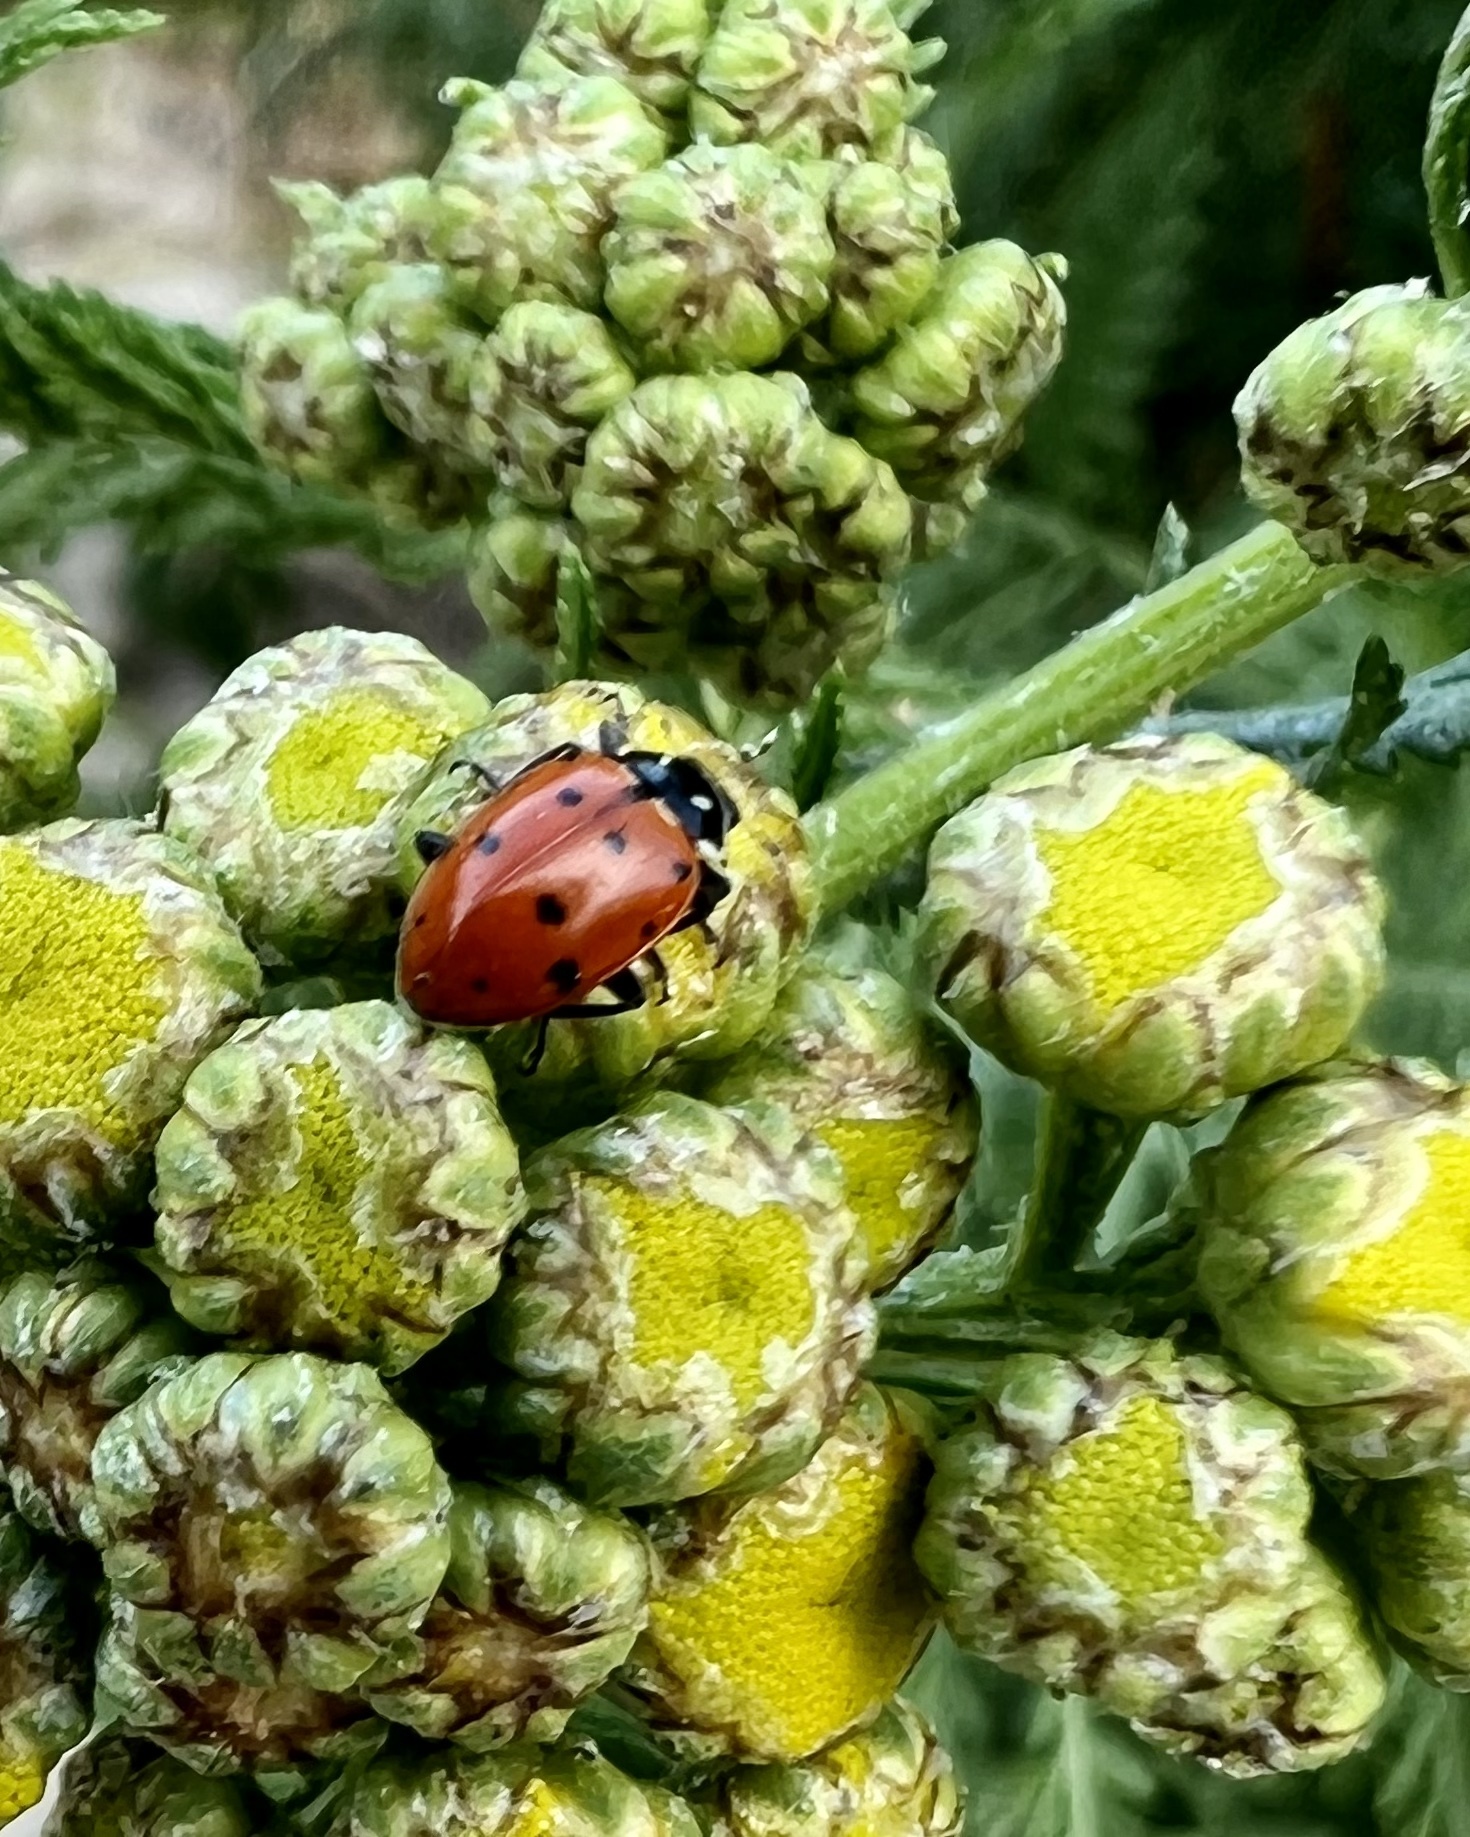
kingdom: Animalia
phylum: Arthropoda
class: Insecta
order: Coleoptera
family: Coccinellidae
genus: Hippodamia
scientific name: Hippodamia convergens
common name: Convergent lady beetle
